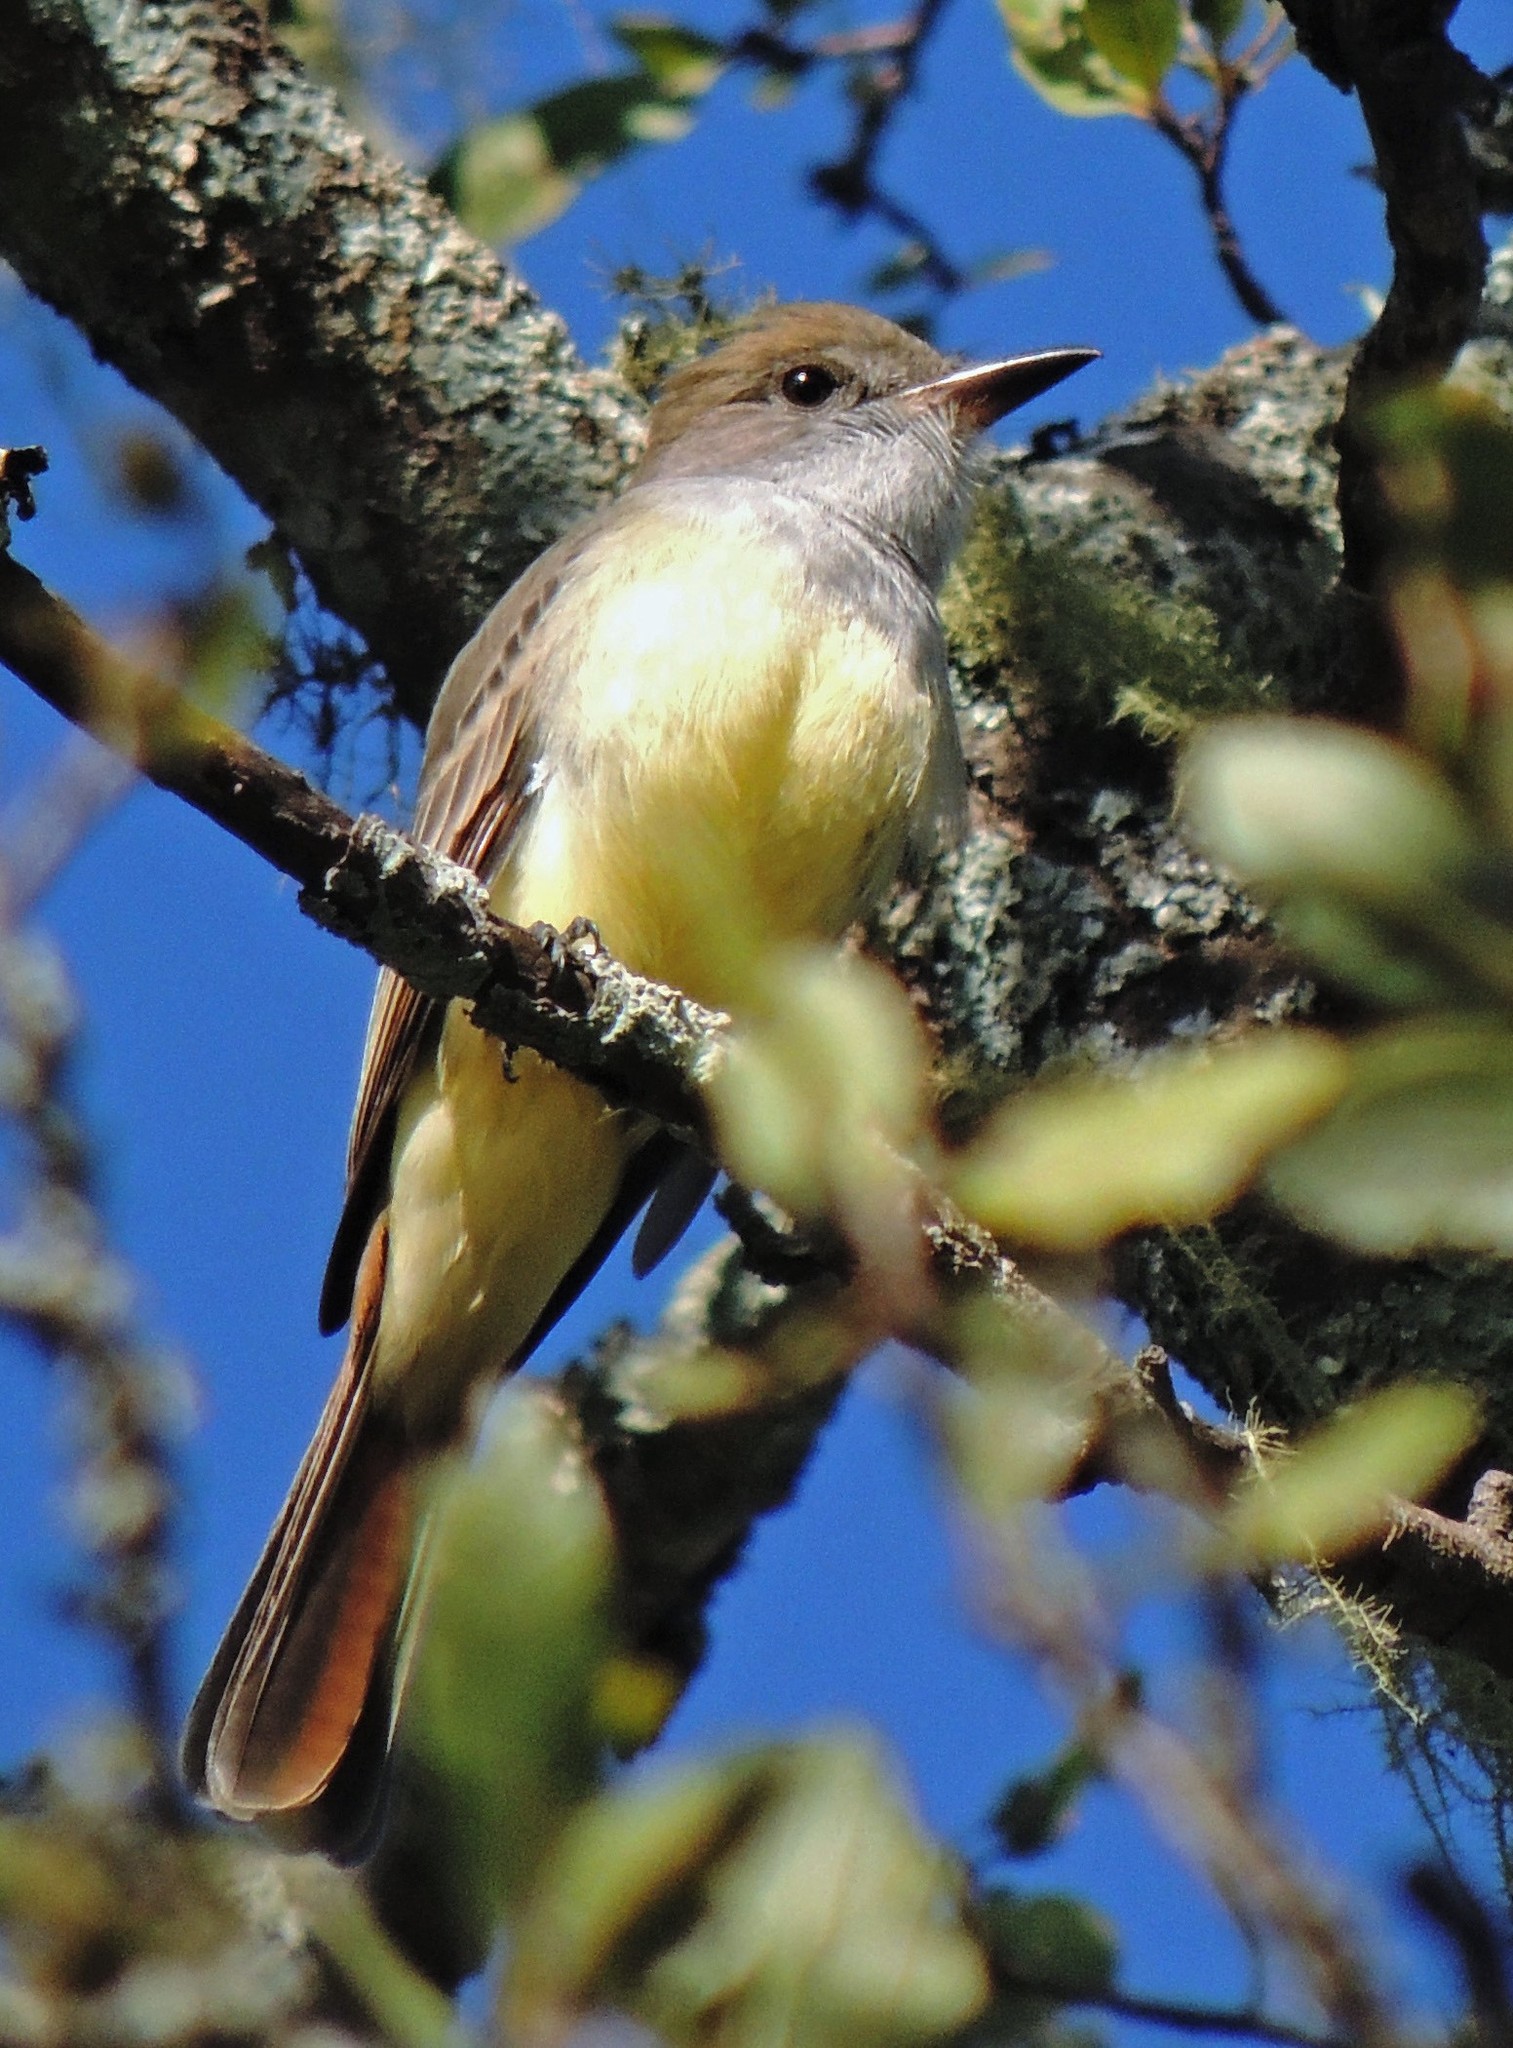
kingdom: Animalia
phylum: Chordata
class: Aves
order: Passeriformes
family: Tyrannidae
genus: Myiarchus
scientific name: Myiarchus tyrannulus
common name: Brown-crested flycatcher
